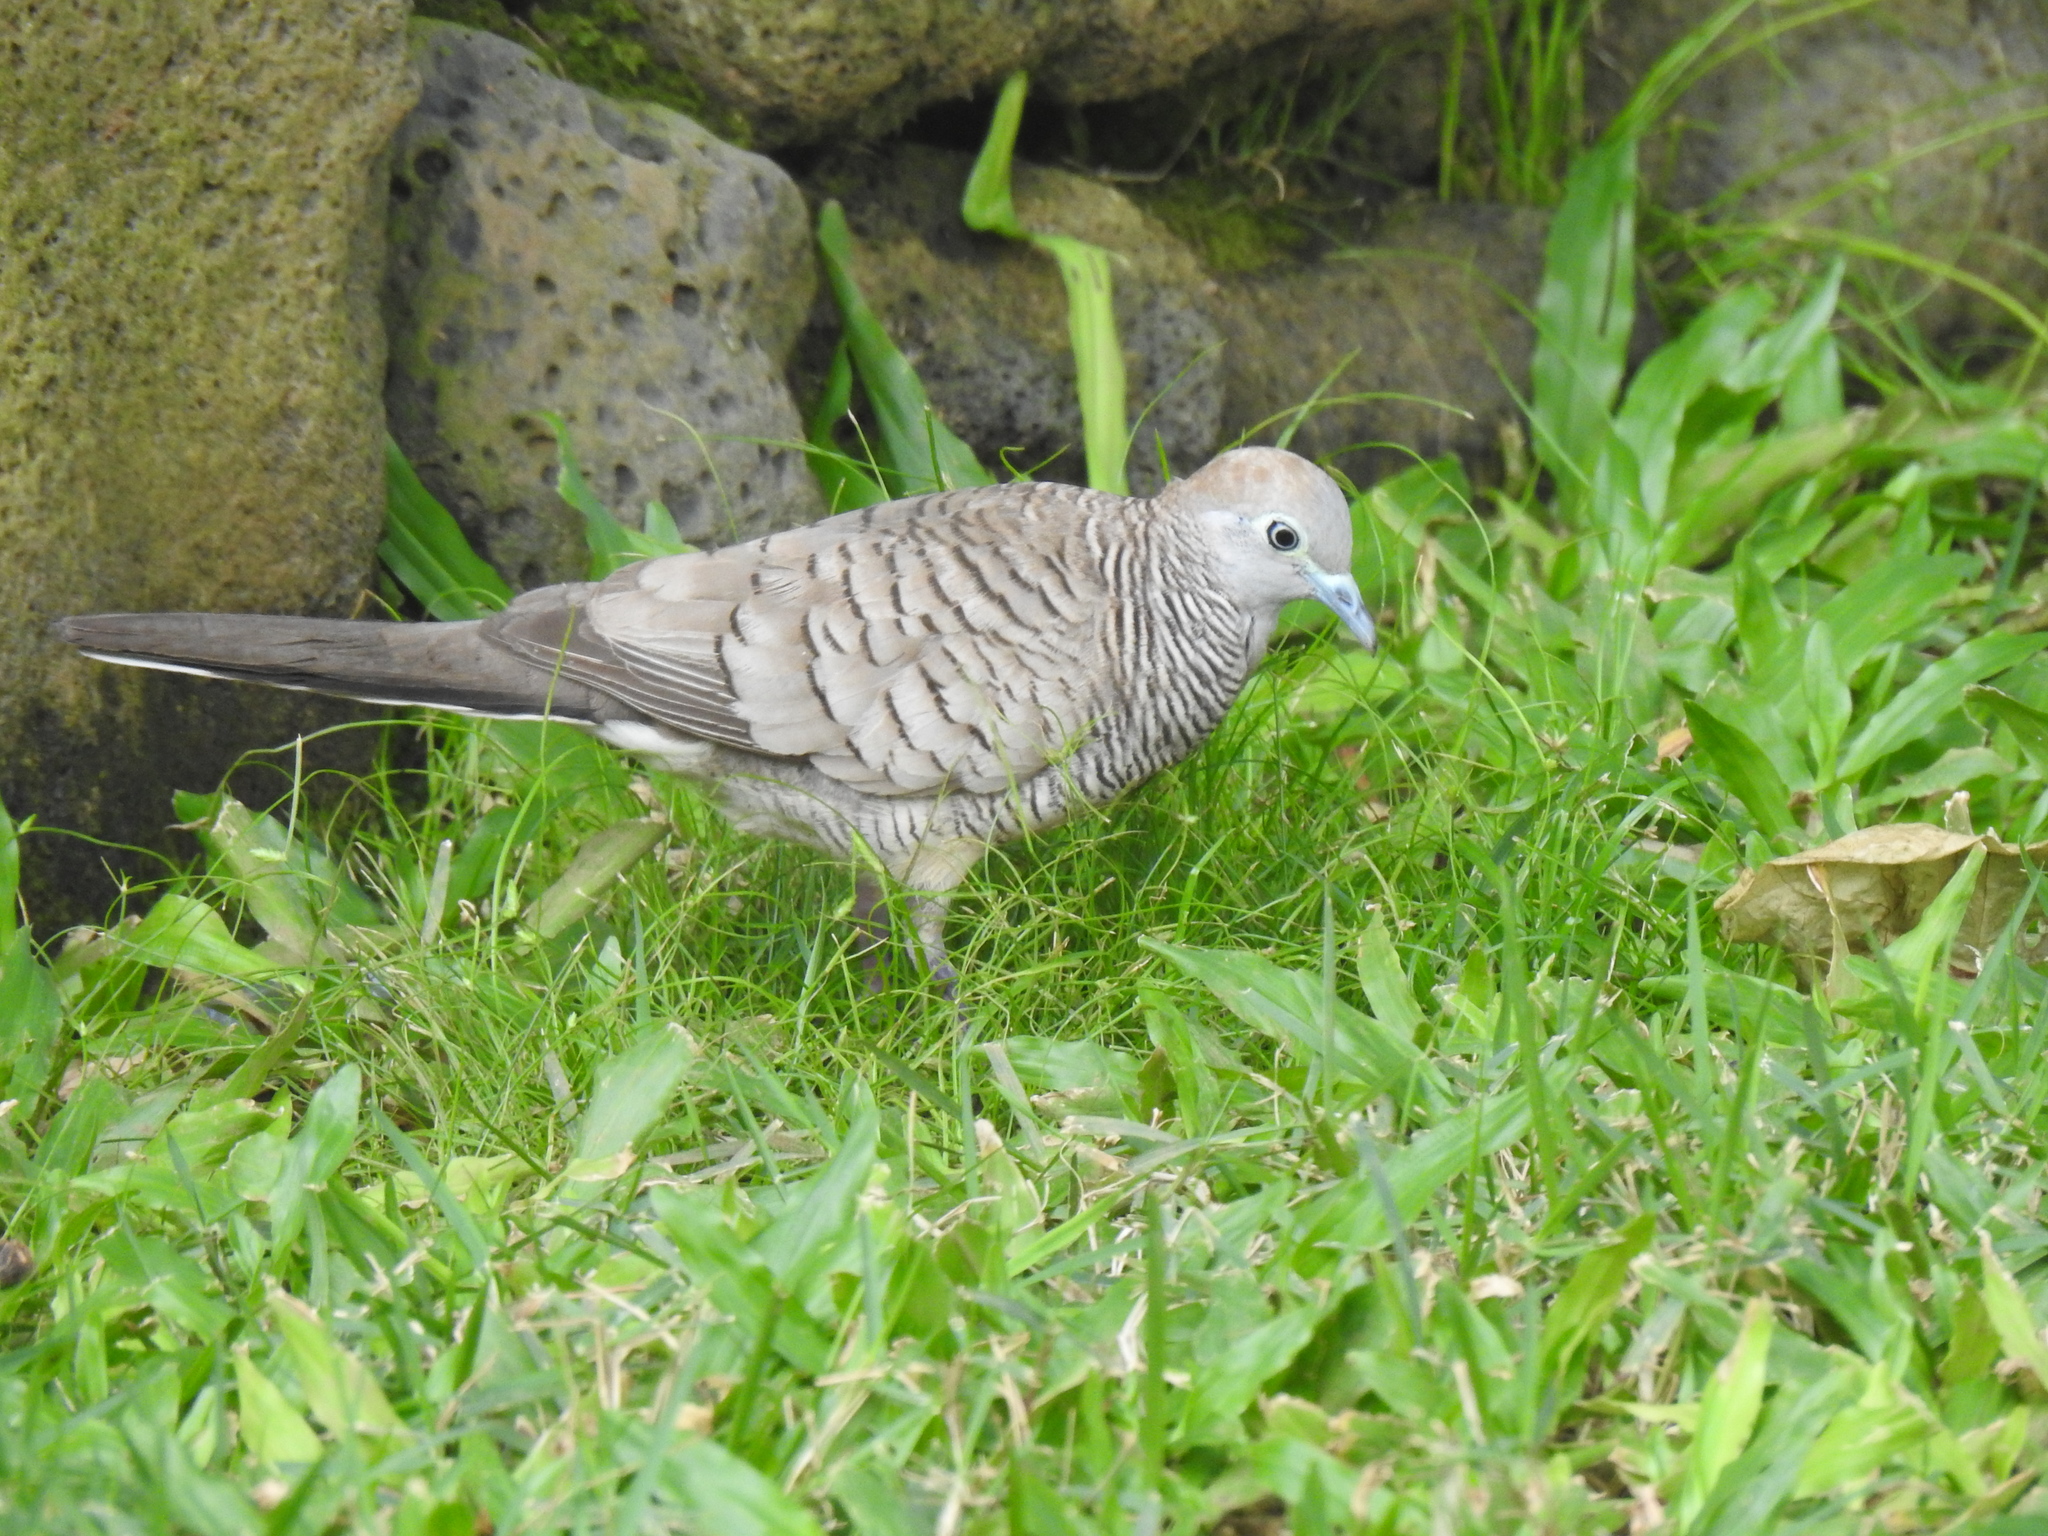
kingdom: Animalia
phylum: Chordata
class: Aves
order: Columbiformes
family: Columbidae
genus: Geopelia
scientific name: Geopelia striata
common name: Zebra dove
